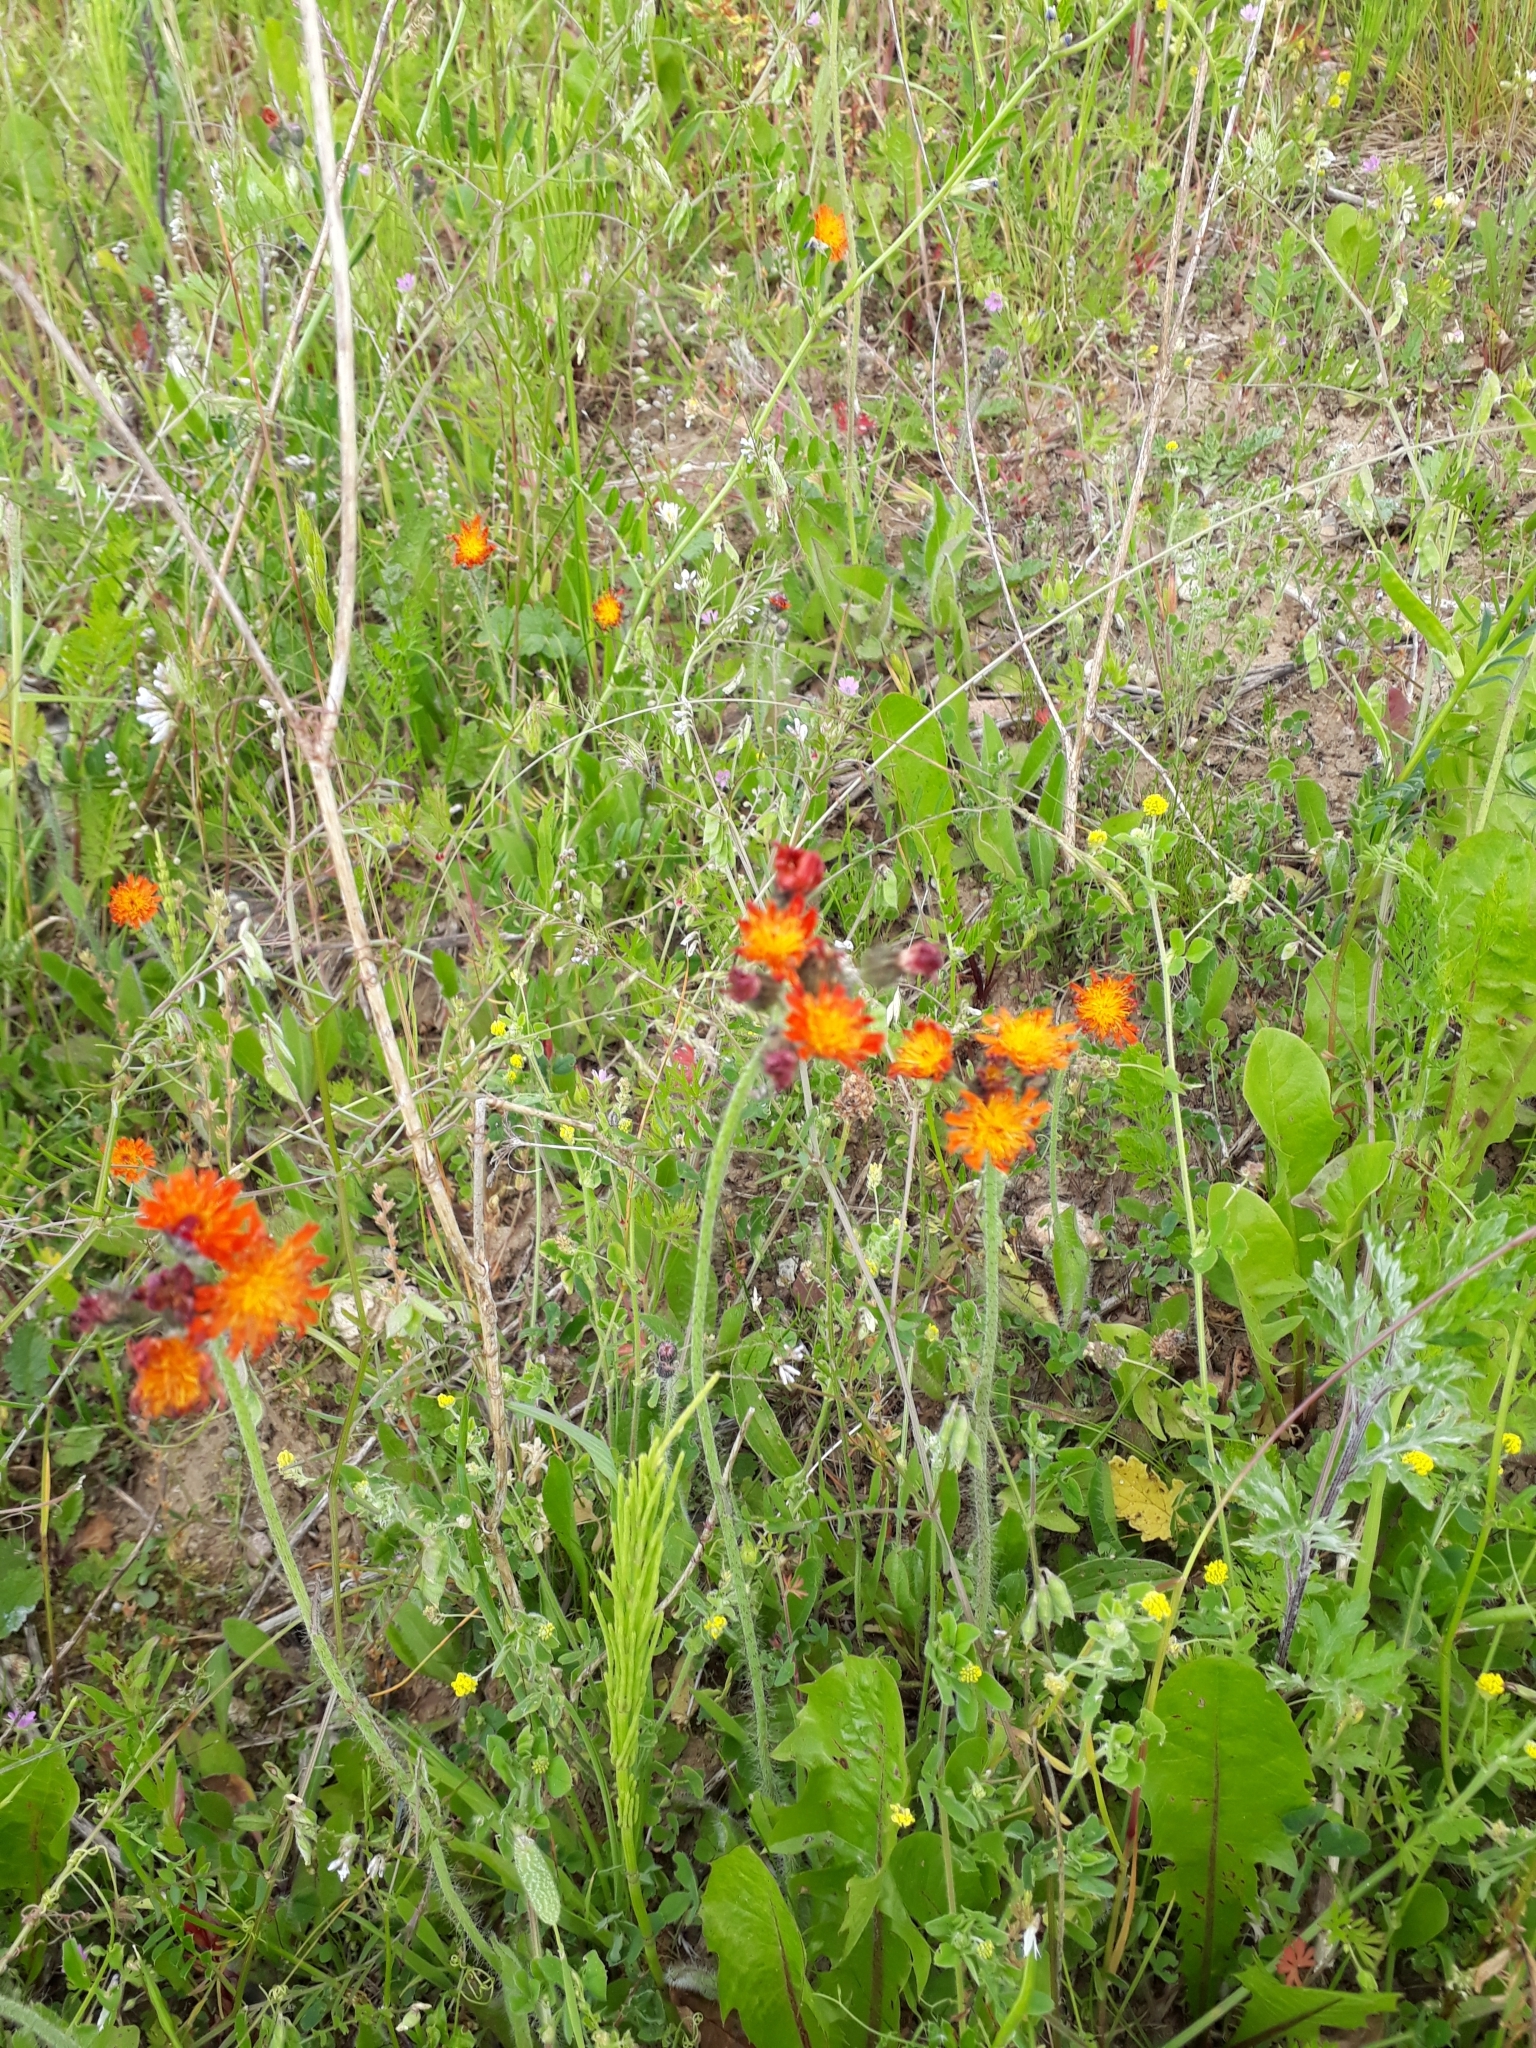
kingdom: Plantae
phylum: Tracheophyta
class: Magnoliopsida
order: Asterales
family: Asteraceae
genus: Pilosella
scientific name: Pilosella aurantiaca
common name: Fox-and-cubs
